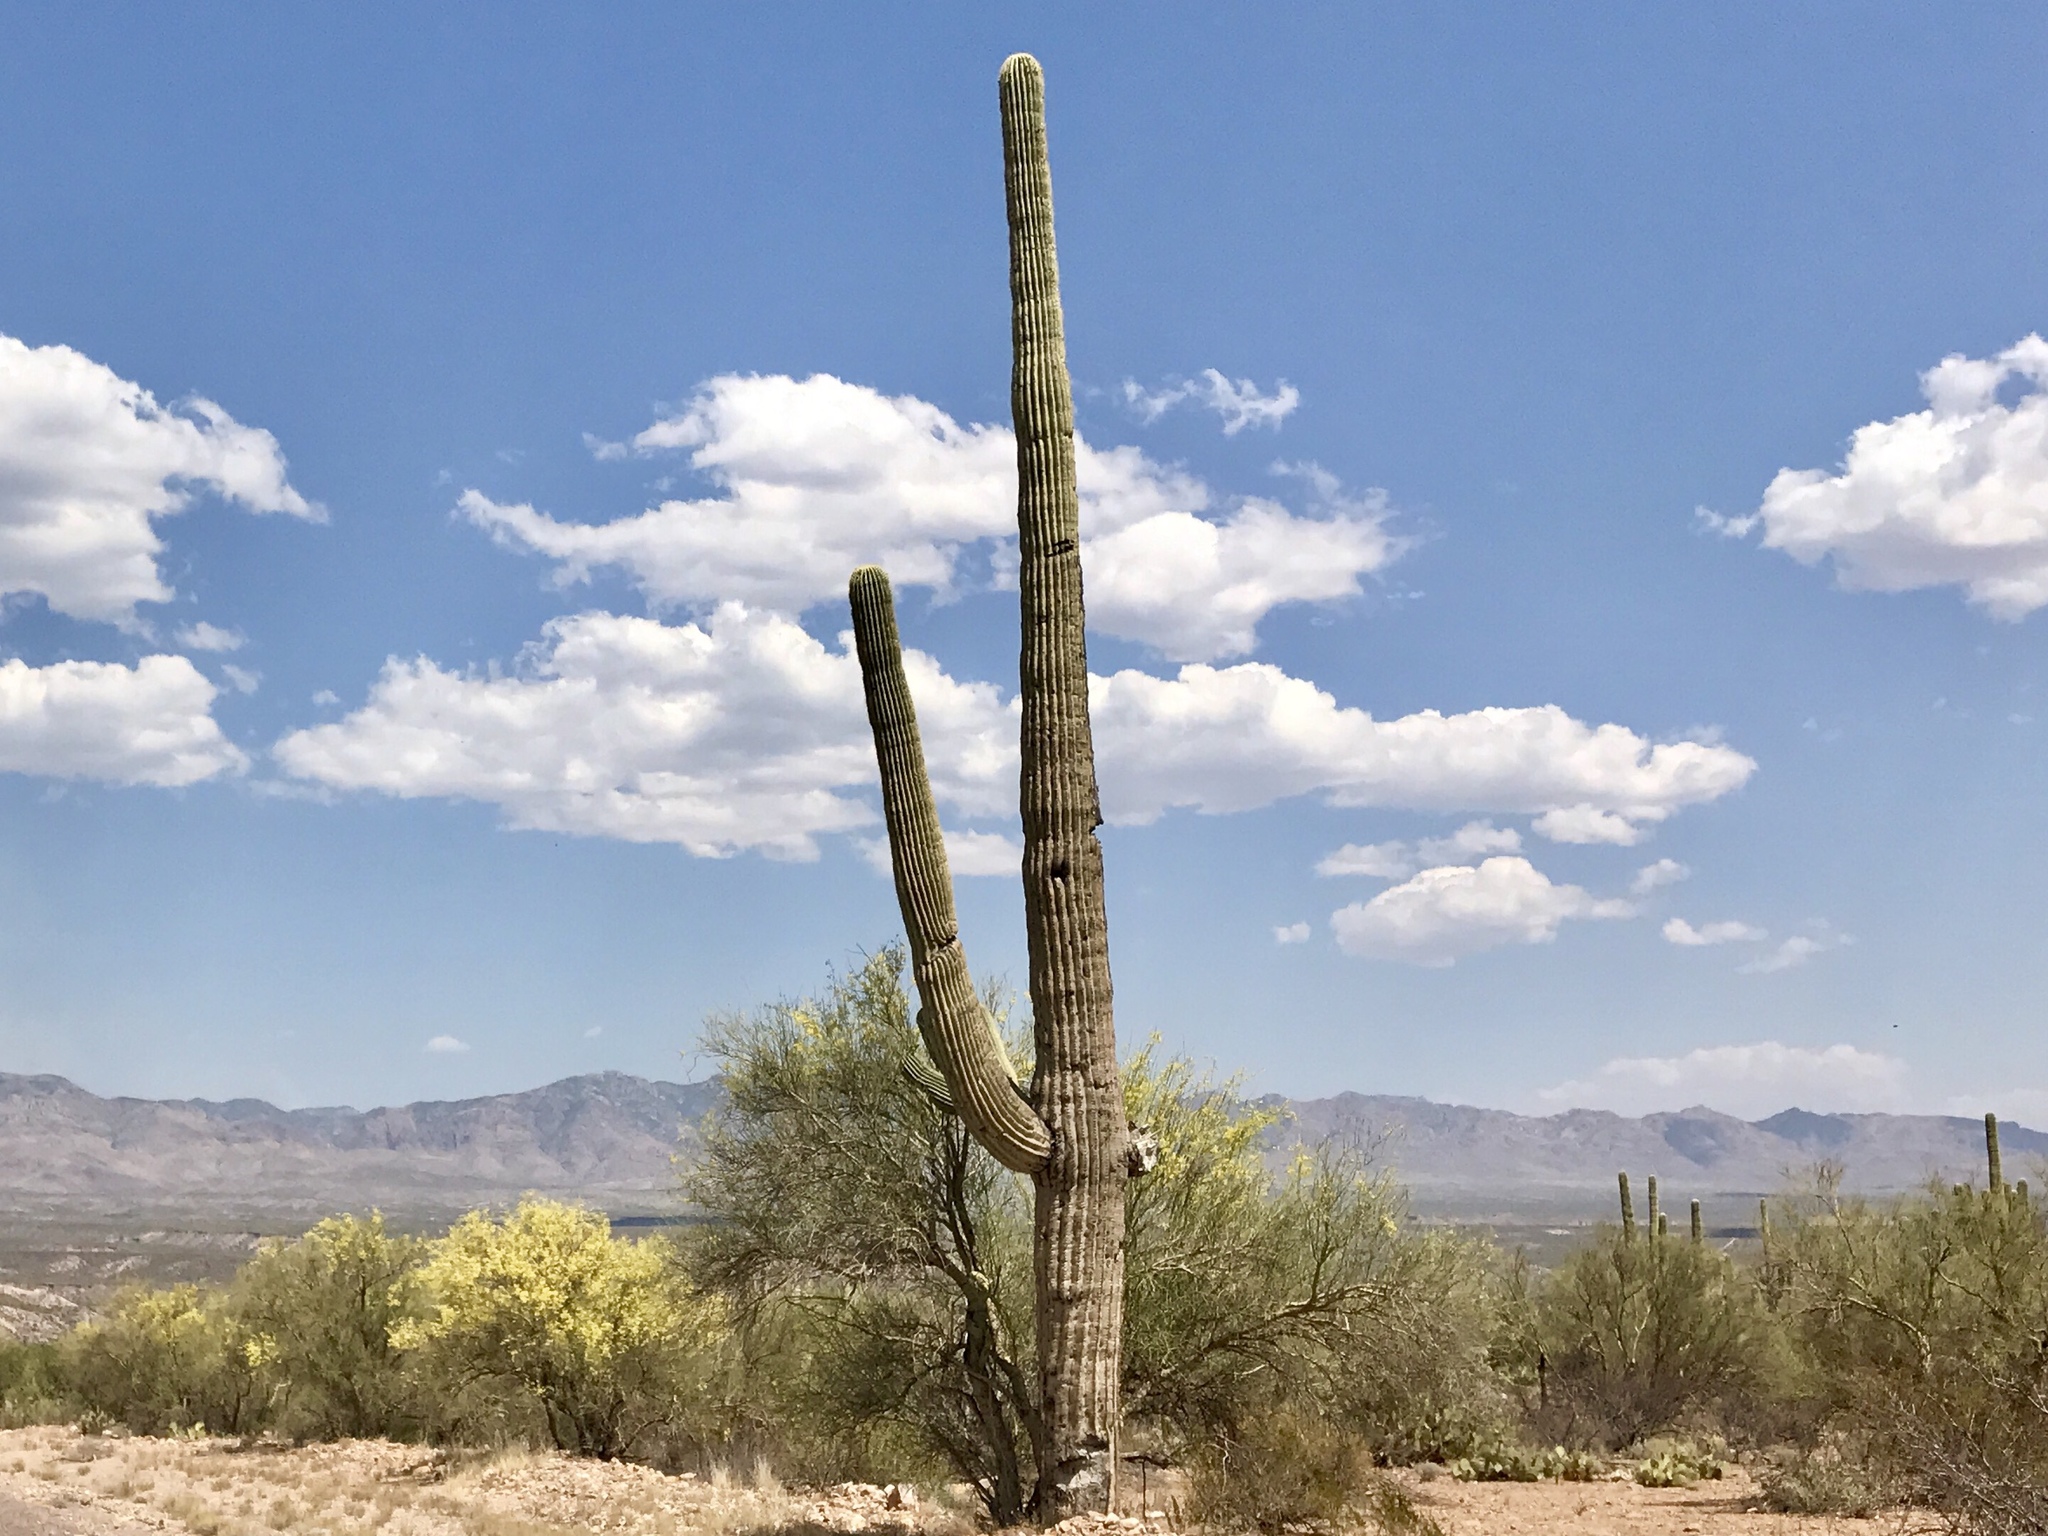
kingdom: Plantae
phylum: Tracheophyta
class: Magnoliopsida
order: Caryophyllales
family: Cactaceae
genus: Carnegiea
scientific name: Carnegiea gigantea
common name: Saguaro
